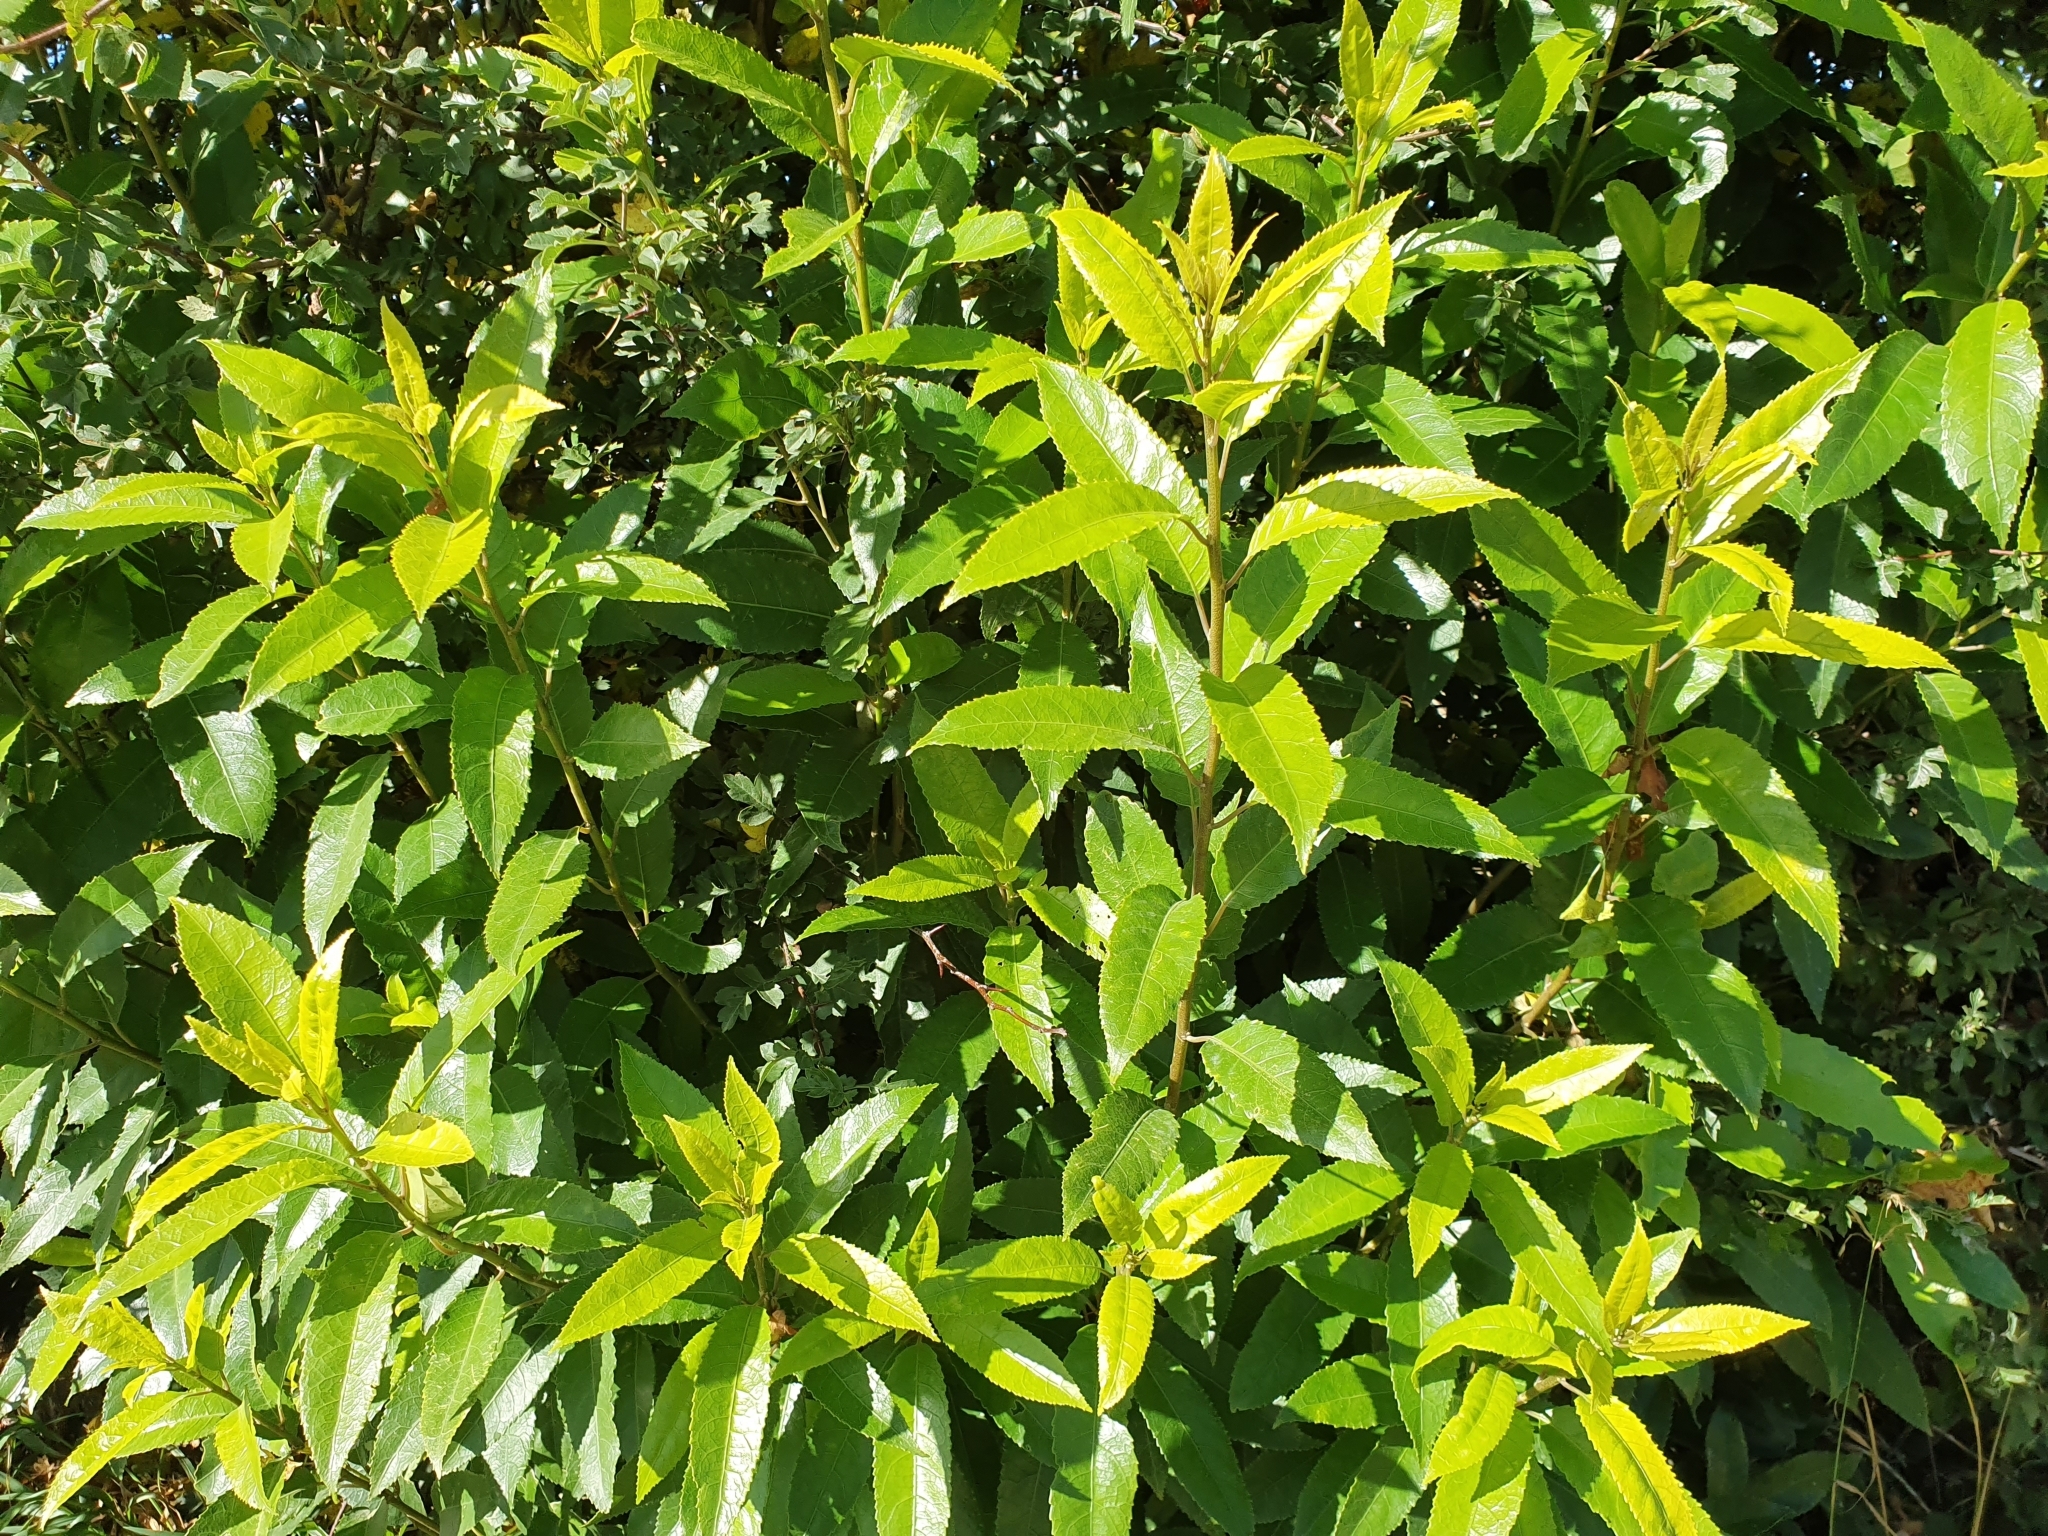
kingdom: Plantae
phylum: Tracheophyta
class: Magnoliopsida
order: Malpighiales
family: Violaceae
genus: Melicytus
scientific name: Melicytus ramiflorus
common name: Mahoe
